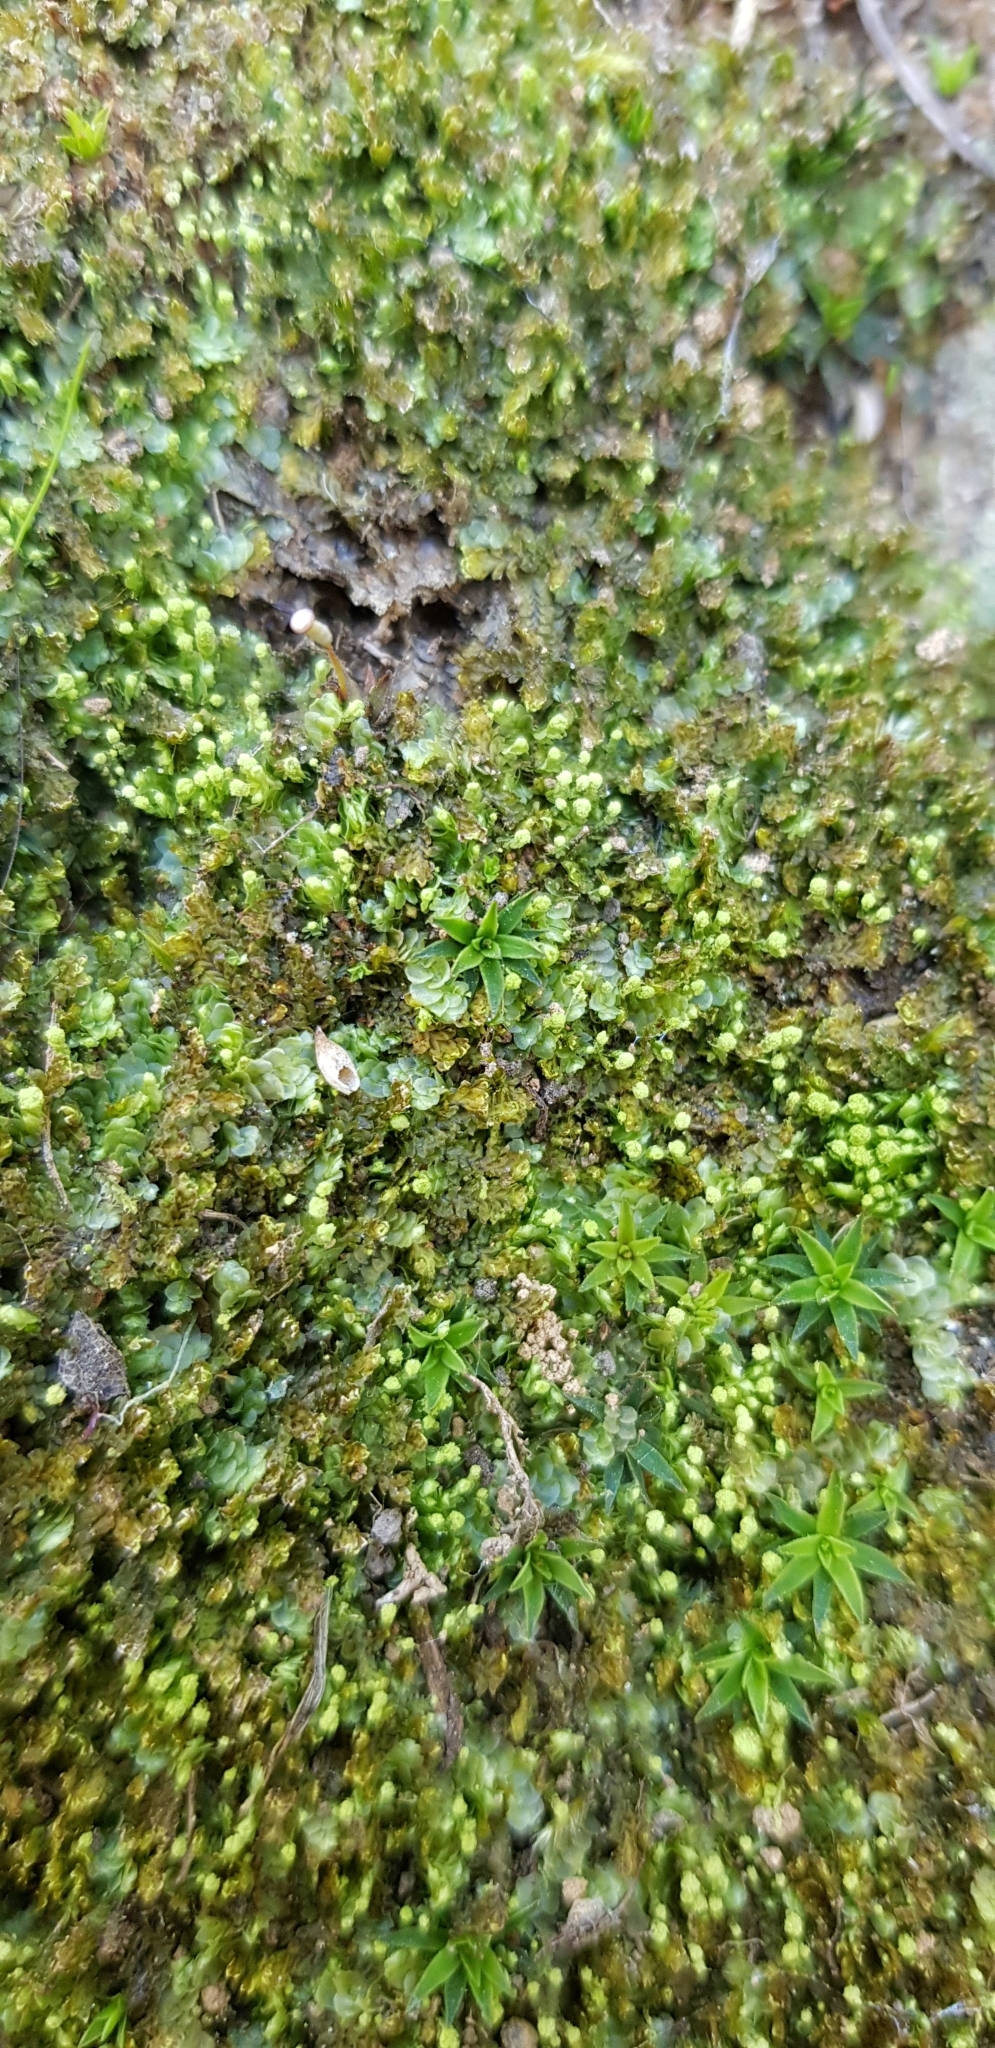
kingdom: Plantae
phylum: Marchantiophyta
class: Jungermanniopsida
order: Jungermanniales
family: Calypogeiaceae
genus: Asperifolia
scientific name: Asperifolia arguta
